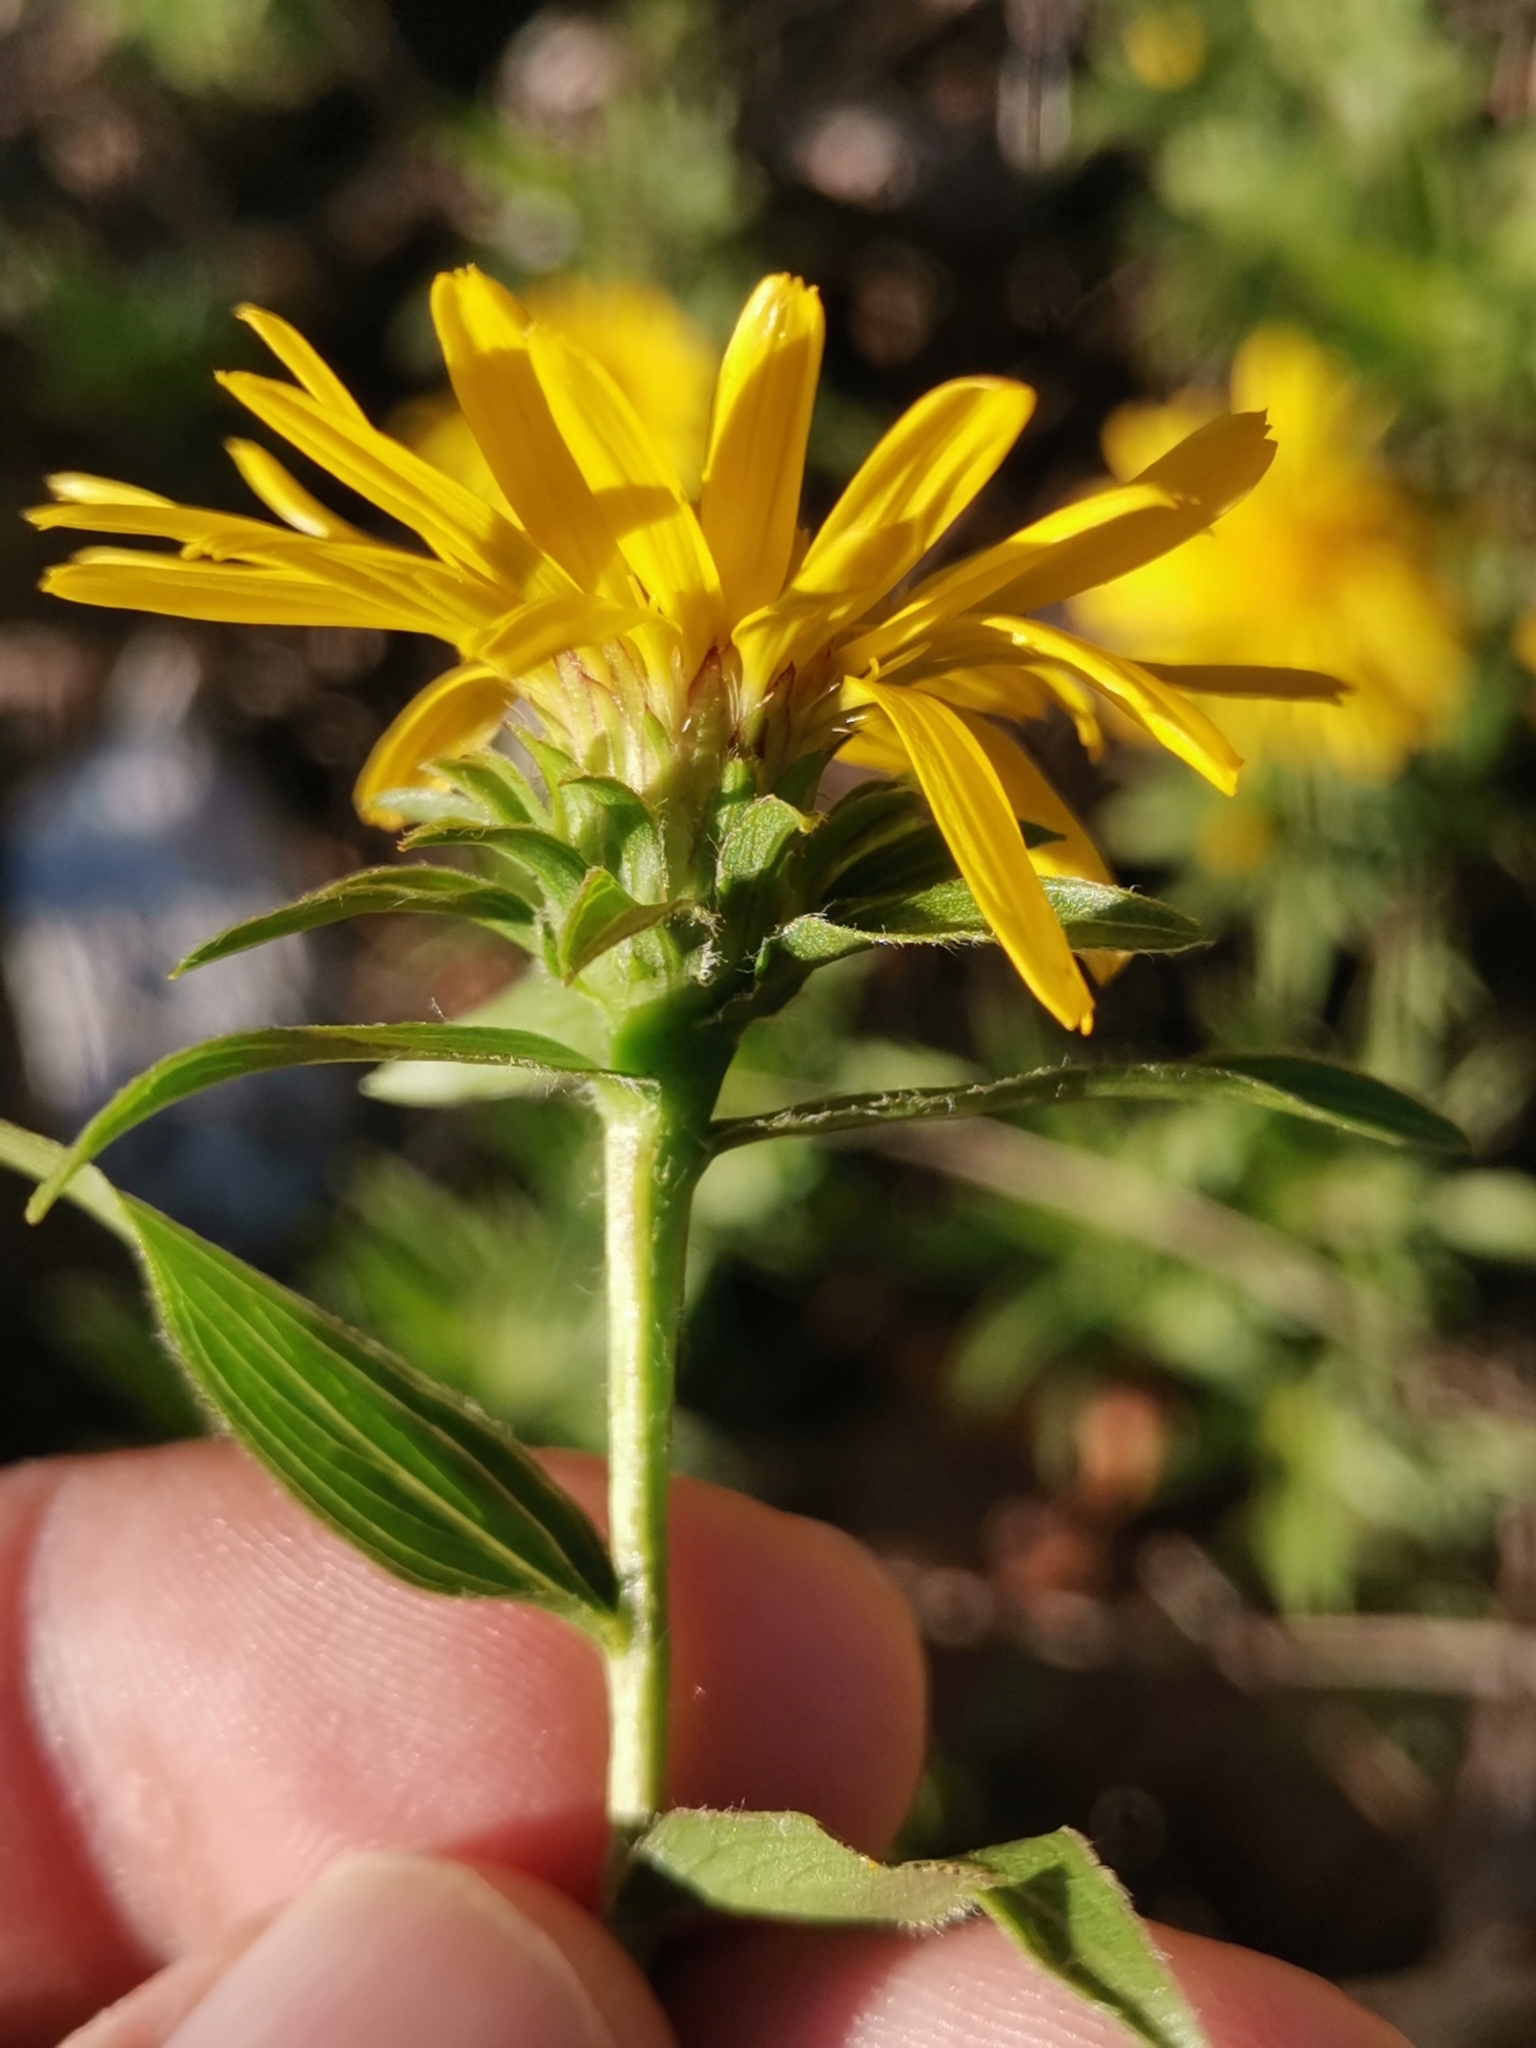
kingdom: Plantae
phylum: Tracheophyta
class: Magnoliopsida
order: Asterales
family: Asteraceae
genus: Pentanema
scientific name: Pentanema ensifolium
